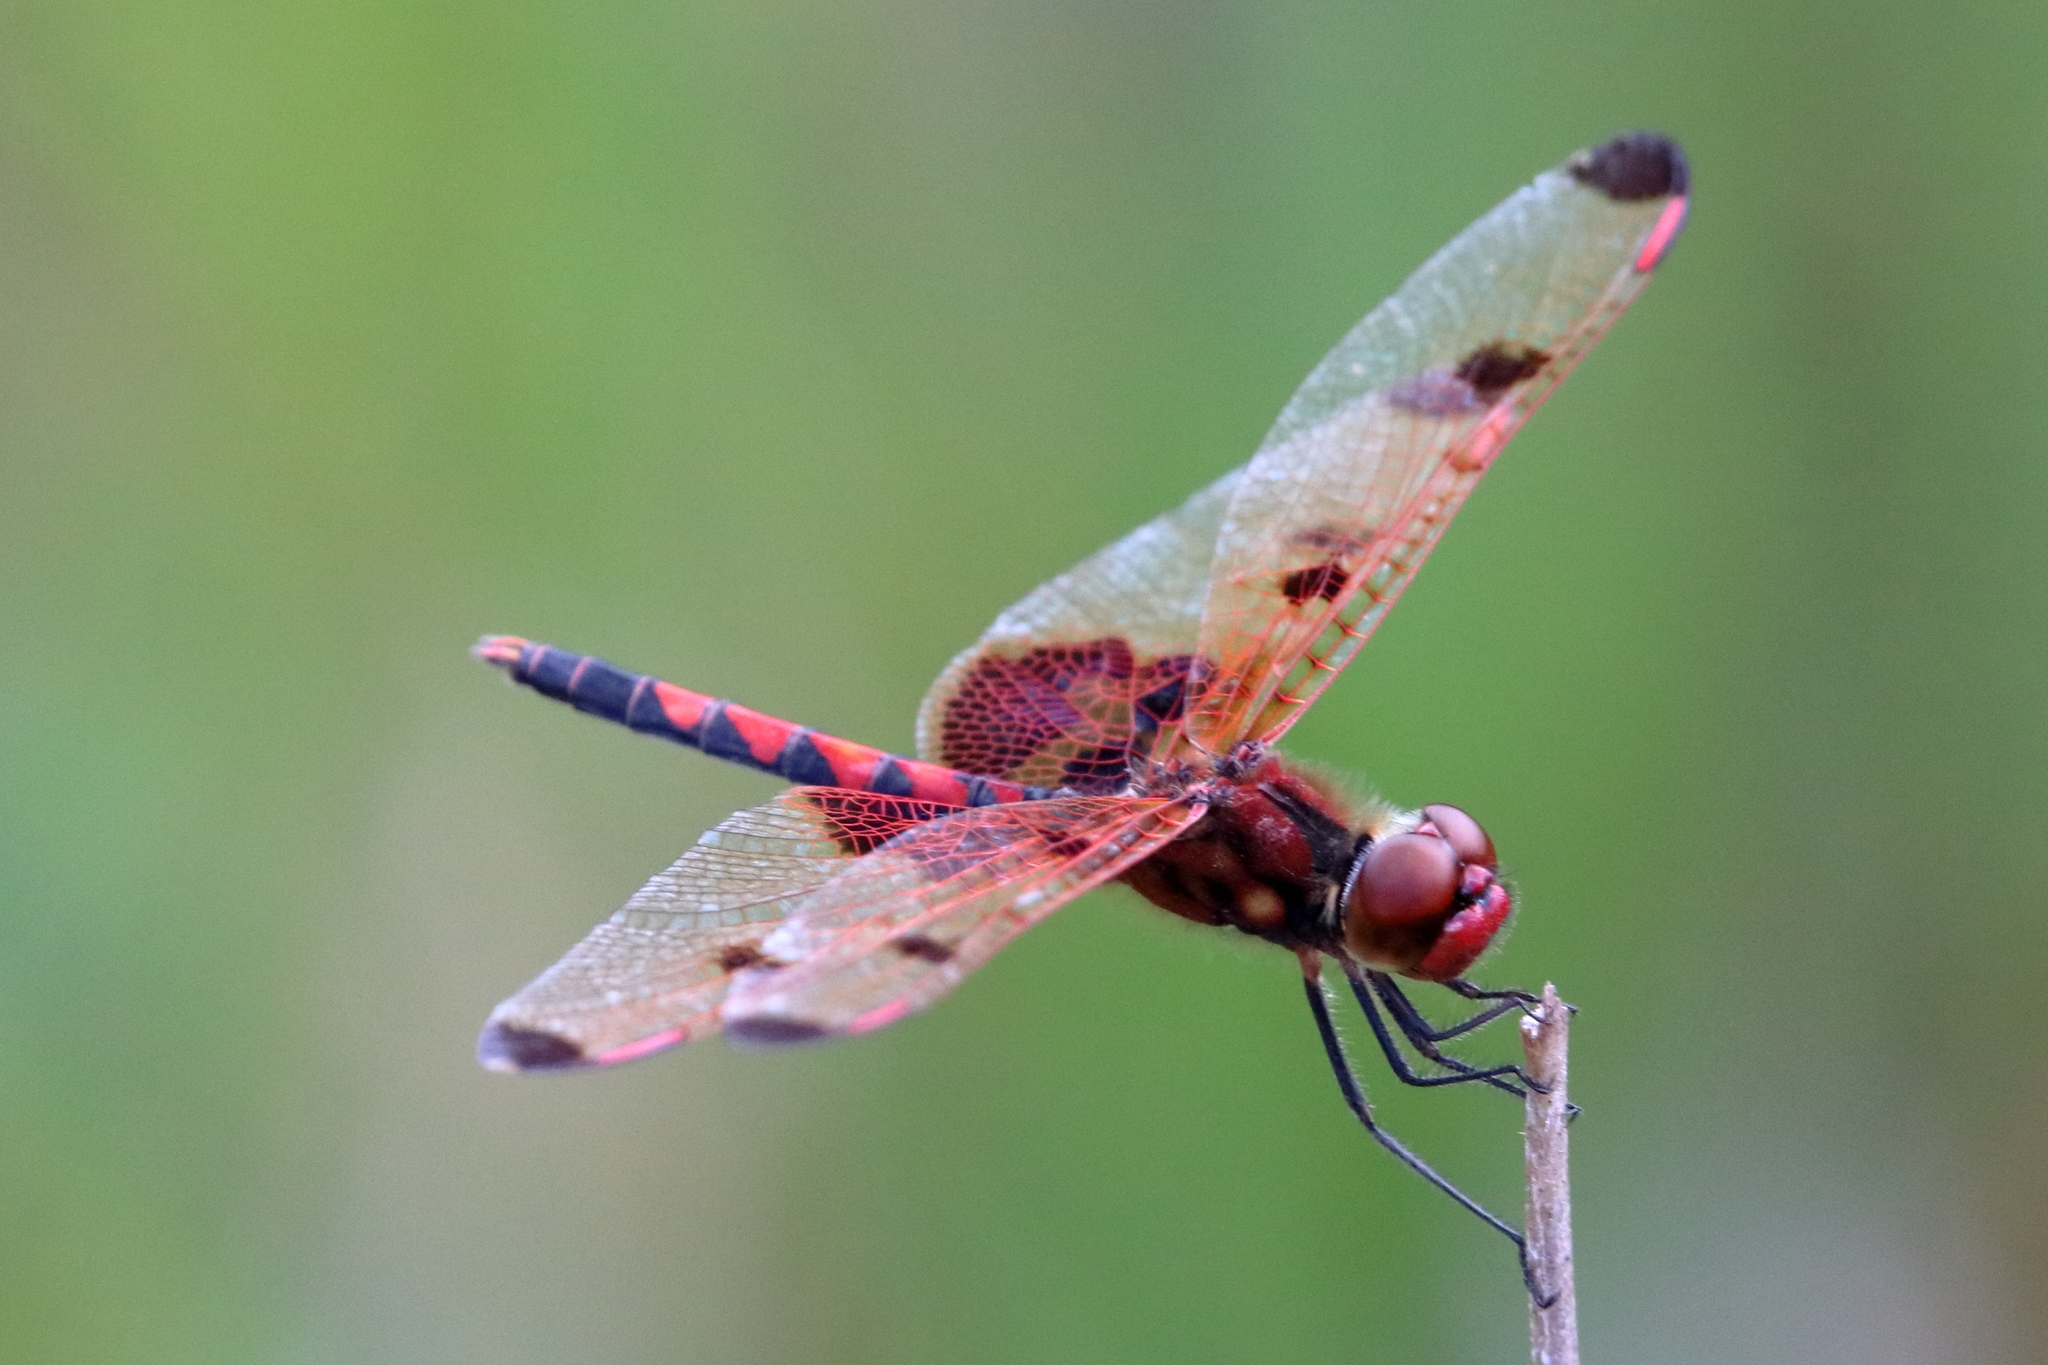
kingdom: Animalia
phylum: Arthropoda
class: Insecta
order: Odonata
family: Libellulidae
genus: Celithemis
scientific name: Celithemis elisa
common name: Calico pennant
